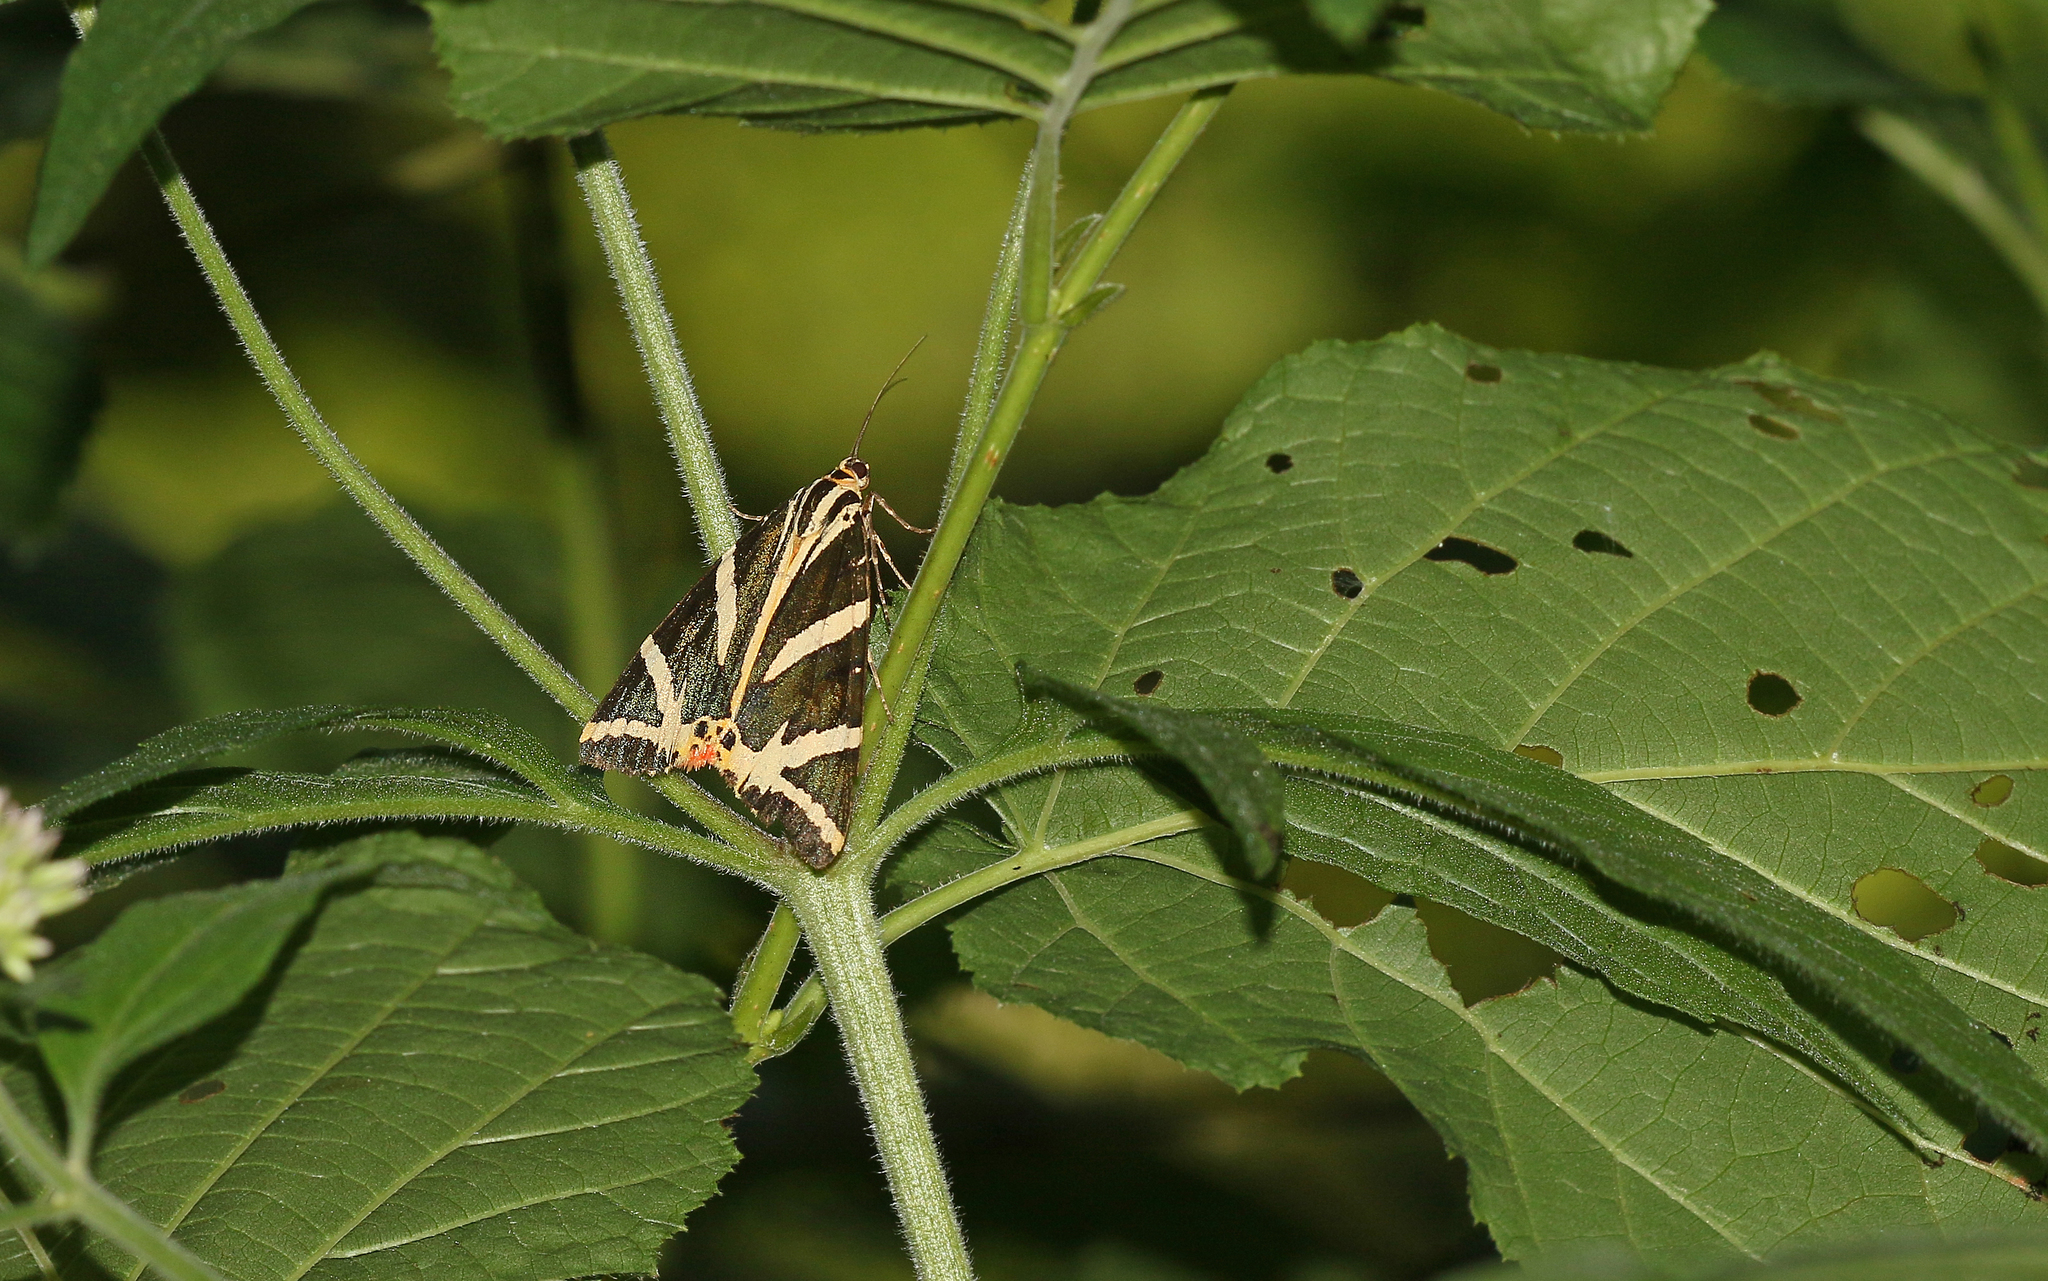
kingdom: Animalia
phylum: Arthropoda
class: Insecta
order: Lepidoptera
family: Erebidae
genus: Euplagia
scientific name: Euplagia quadripunctaria
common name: Jersey tiger
